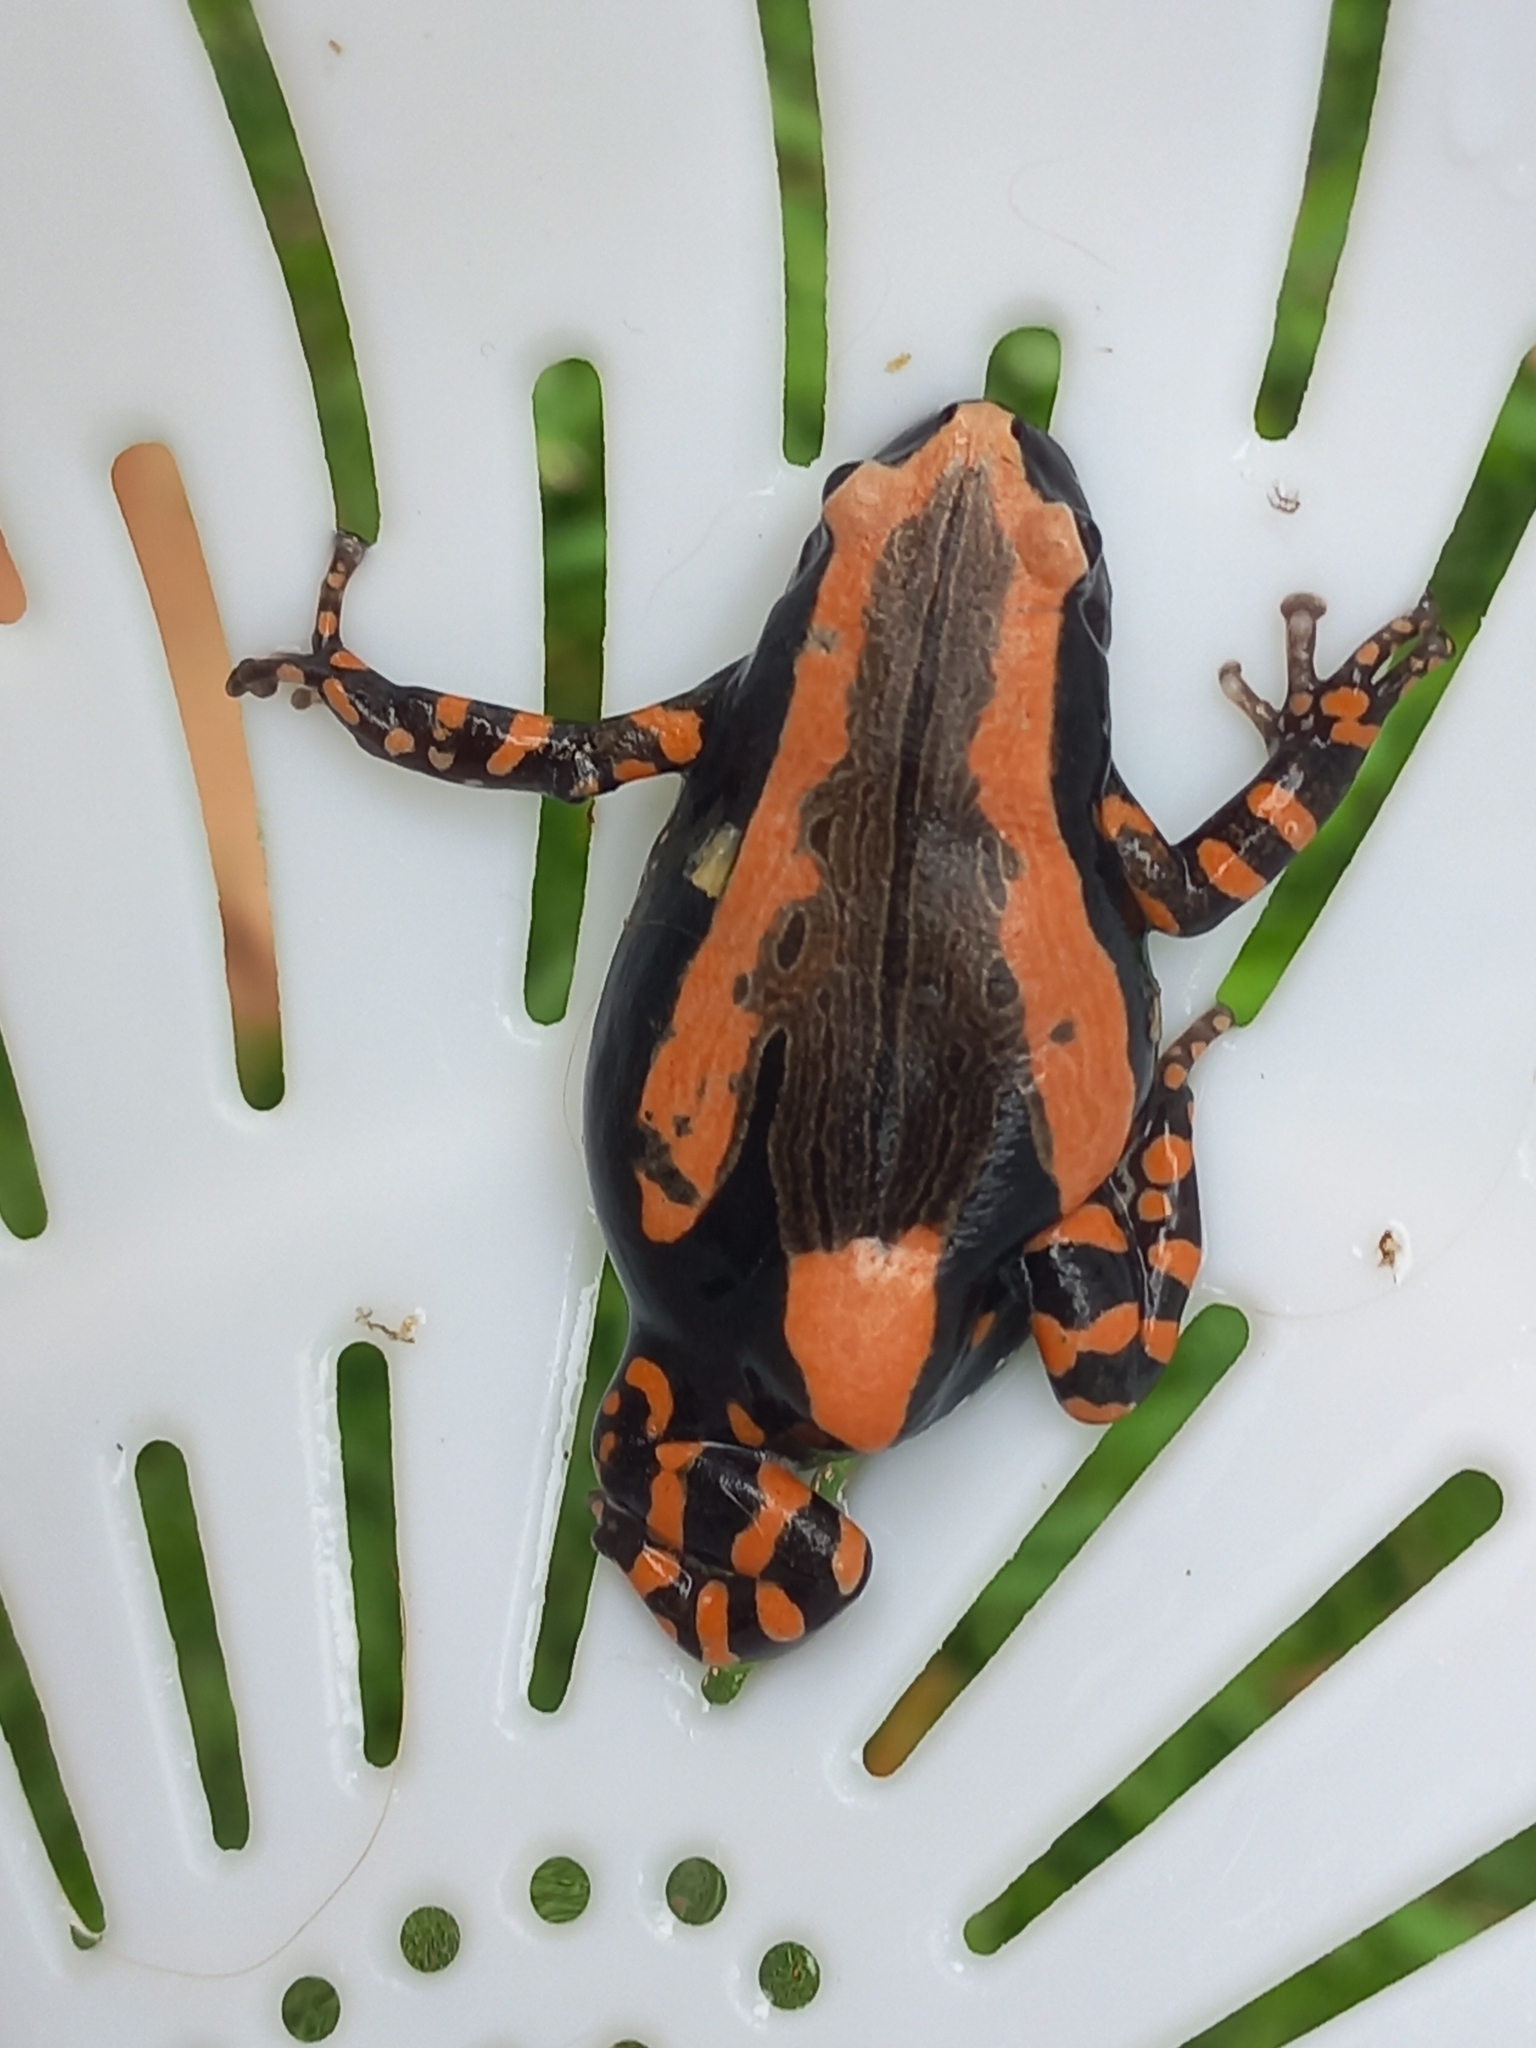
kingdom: Animalia
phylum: Chordata
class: Amphibia
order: Anura
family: Microhylidae
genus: Phrynomantis
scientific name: Phrynomantis bifasciatus
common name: Banded rubber frog
